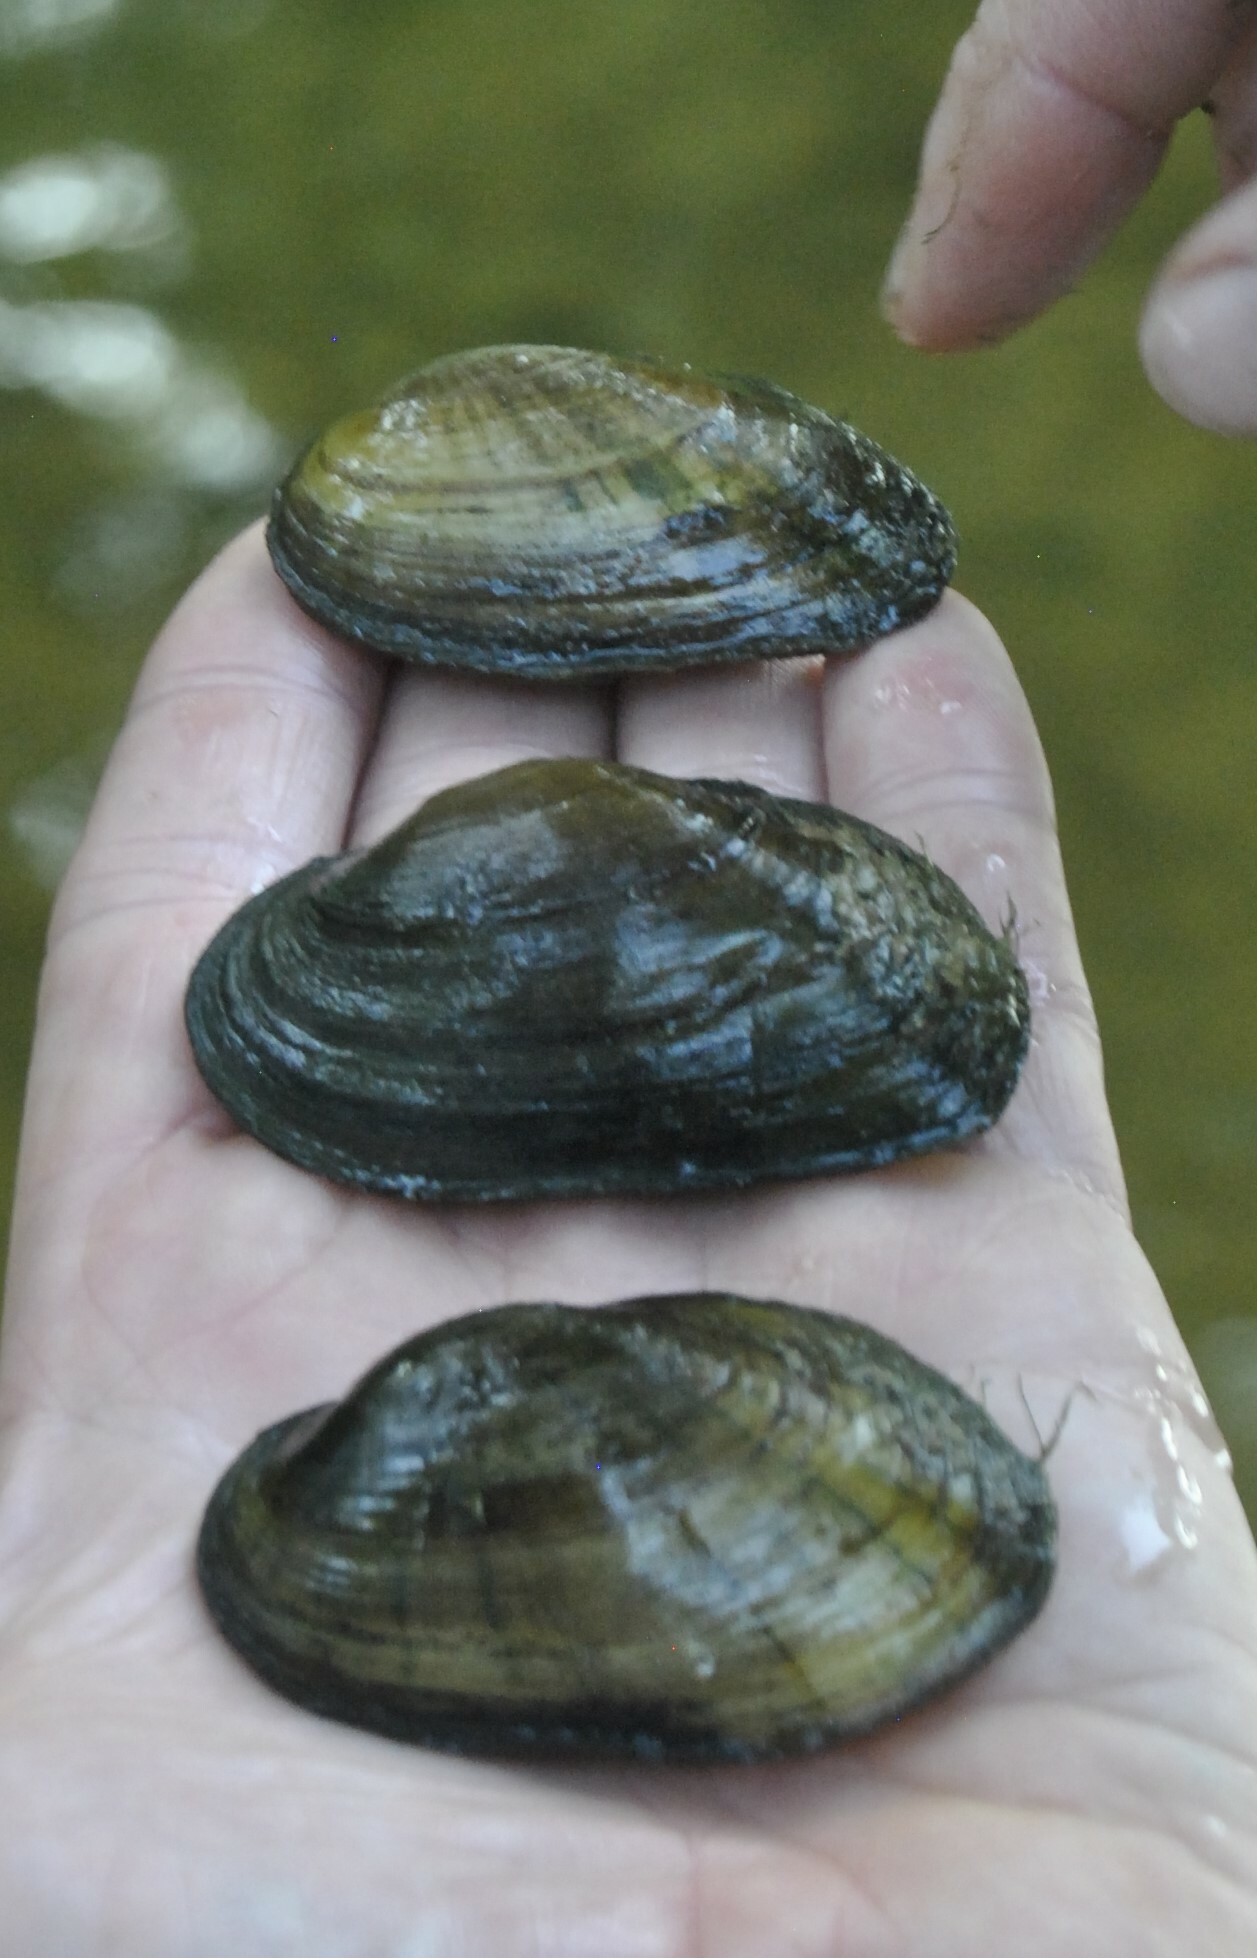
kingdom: Animalia
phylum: Mollusca
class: Bivalvia
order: Unionida
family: Unionidae
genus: Cambarunio
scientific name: Cambarunio iris
